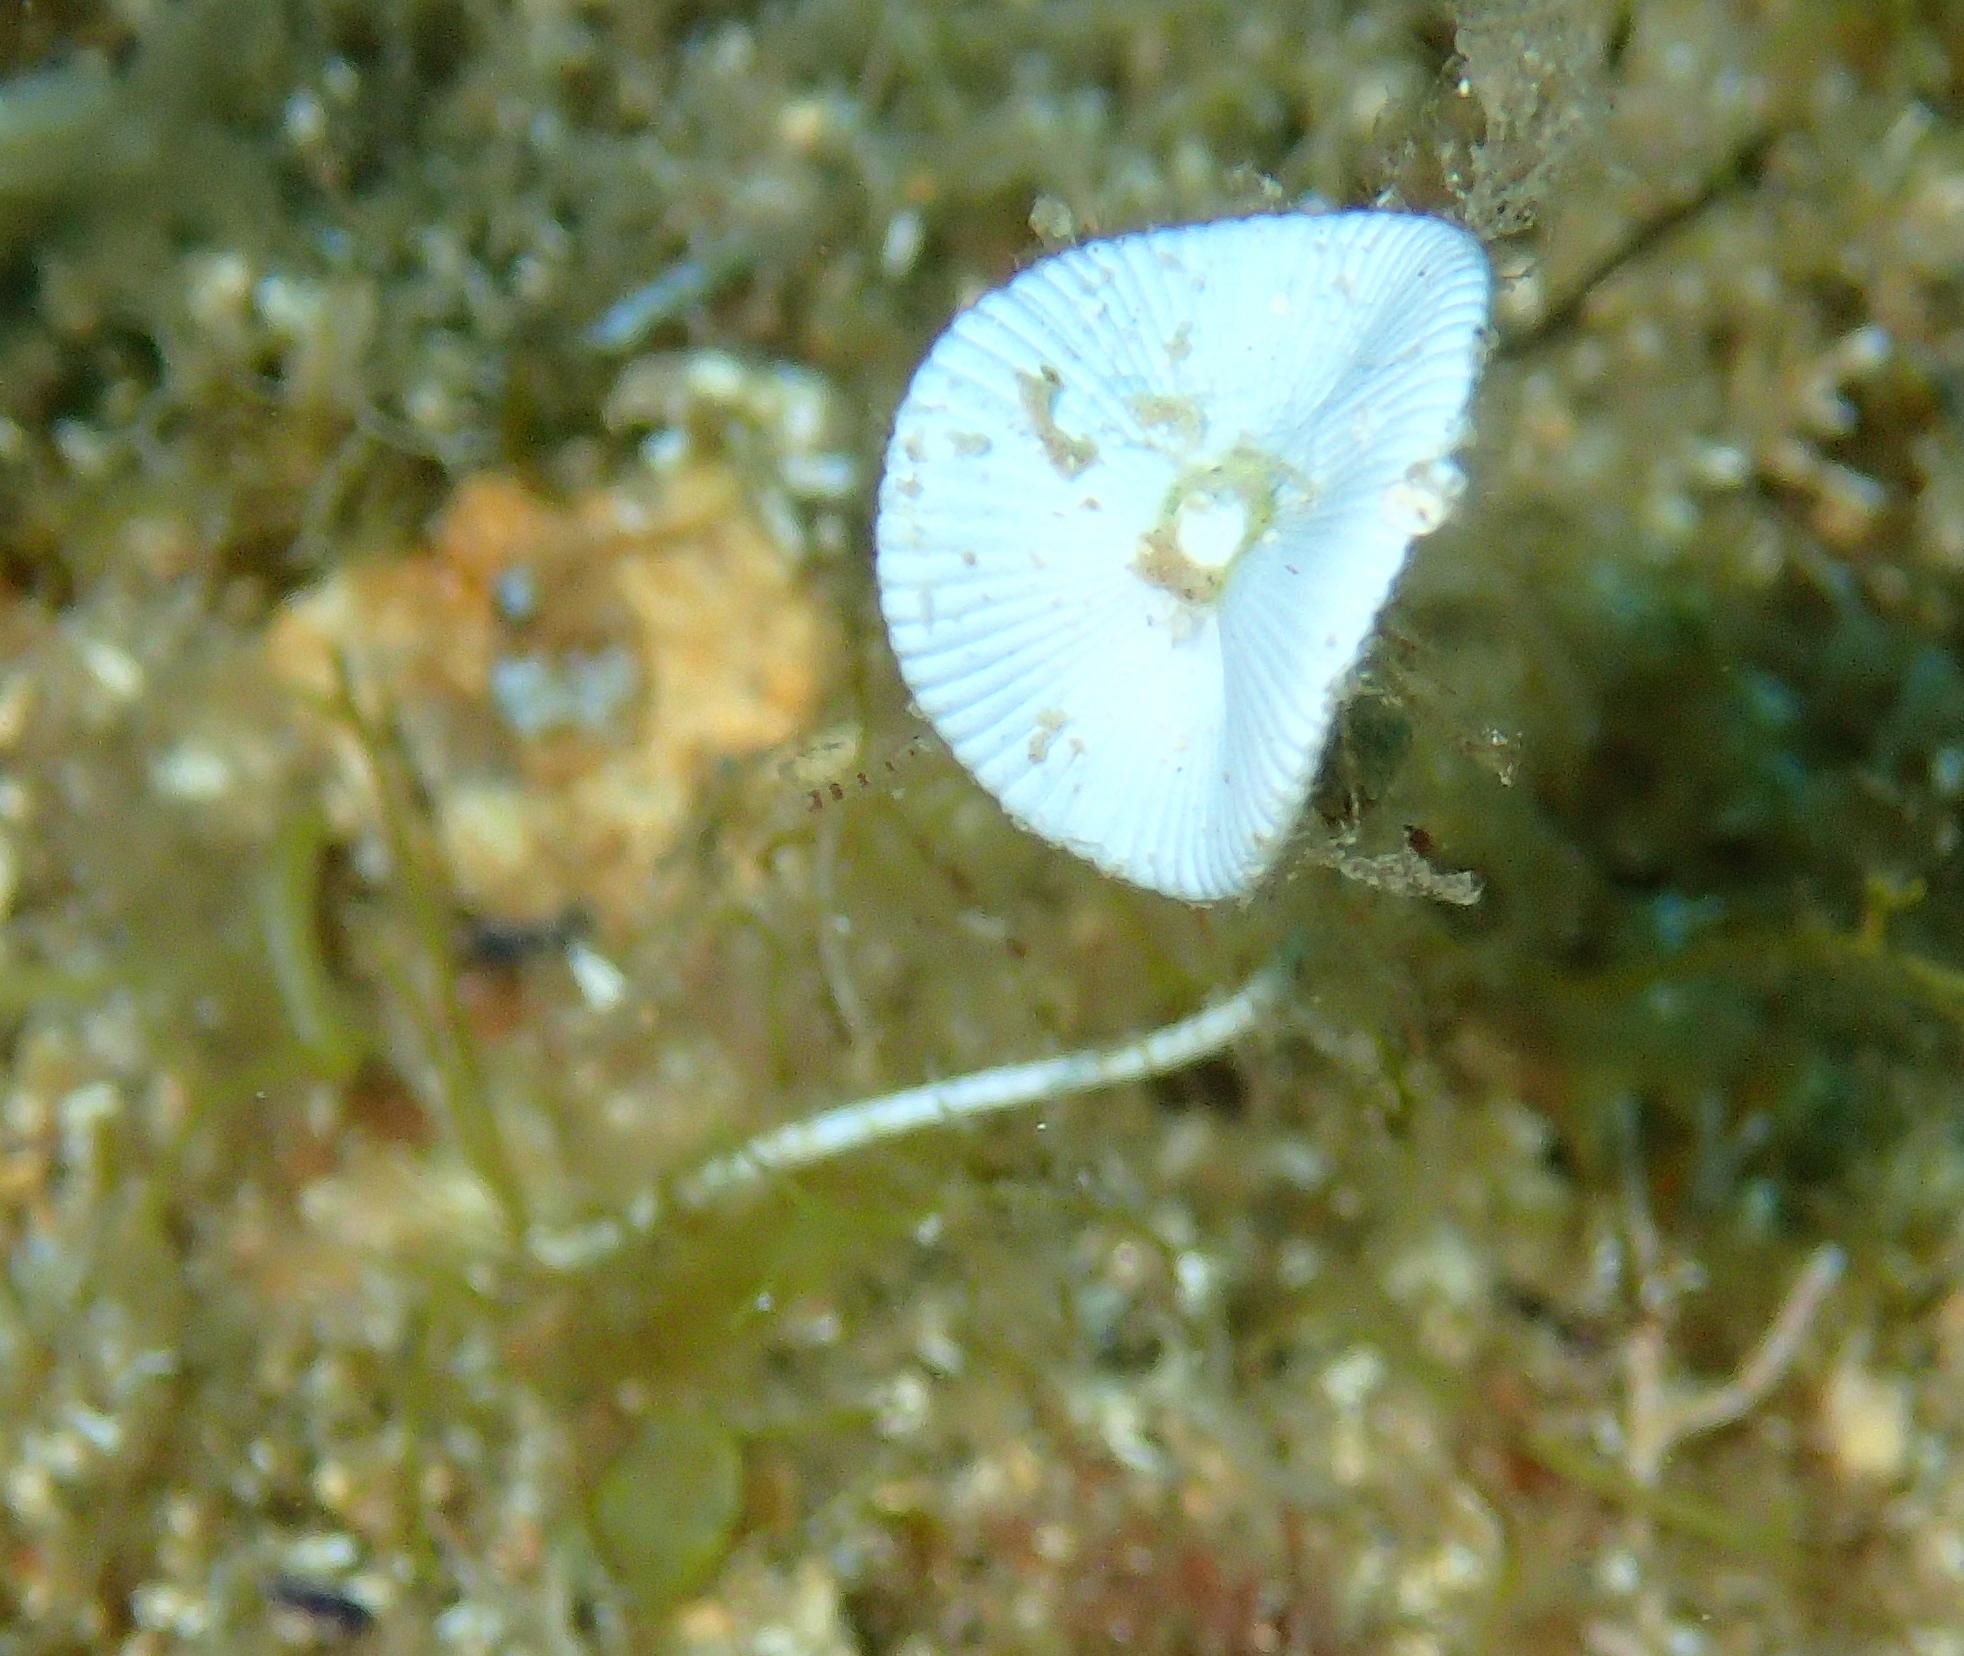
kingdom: Plantae
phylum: Chlorophyta
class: Ulvophyceae
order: Dasycladales
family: Polyphysaceae
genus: Acetabularia
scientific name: Acetabularia acetabulum
